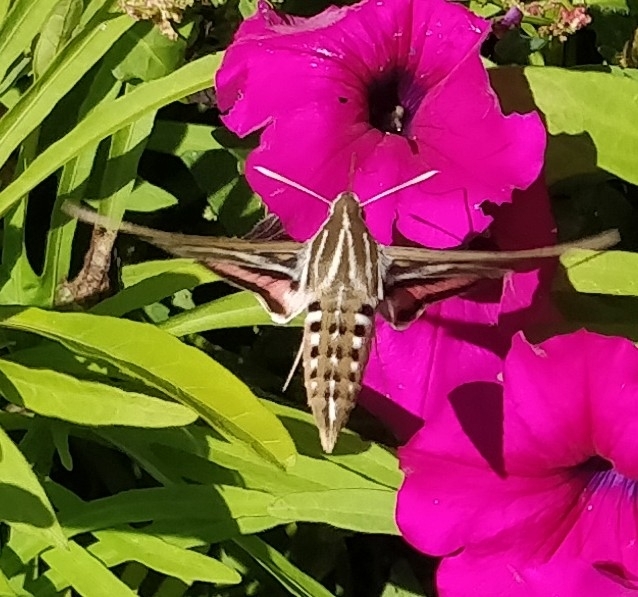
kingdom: Animalia
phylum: Arthropoda
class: Insecta
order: Lepidoptera
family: Sphingidae
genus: Hyles
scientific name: Hyles lineata
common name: White-lined sphinx
